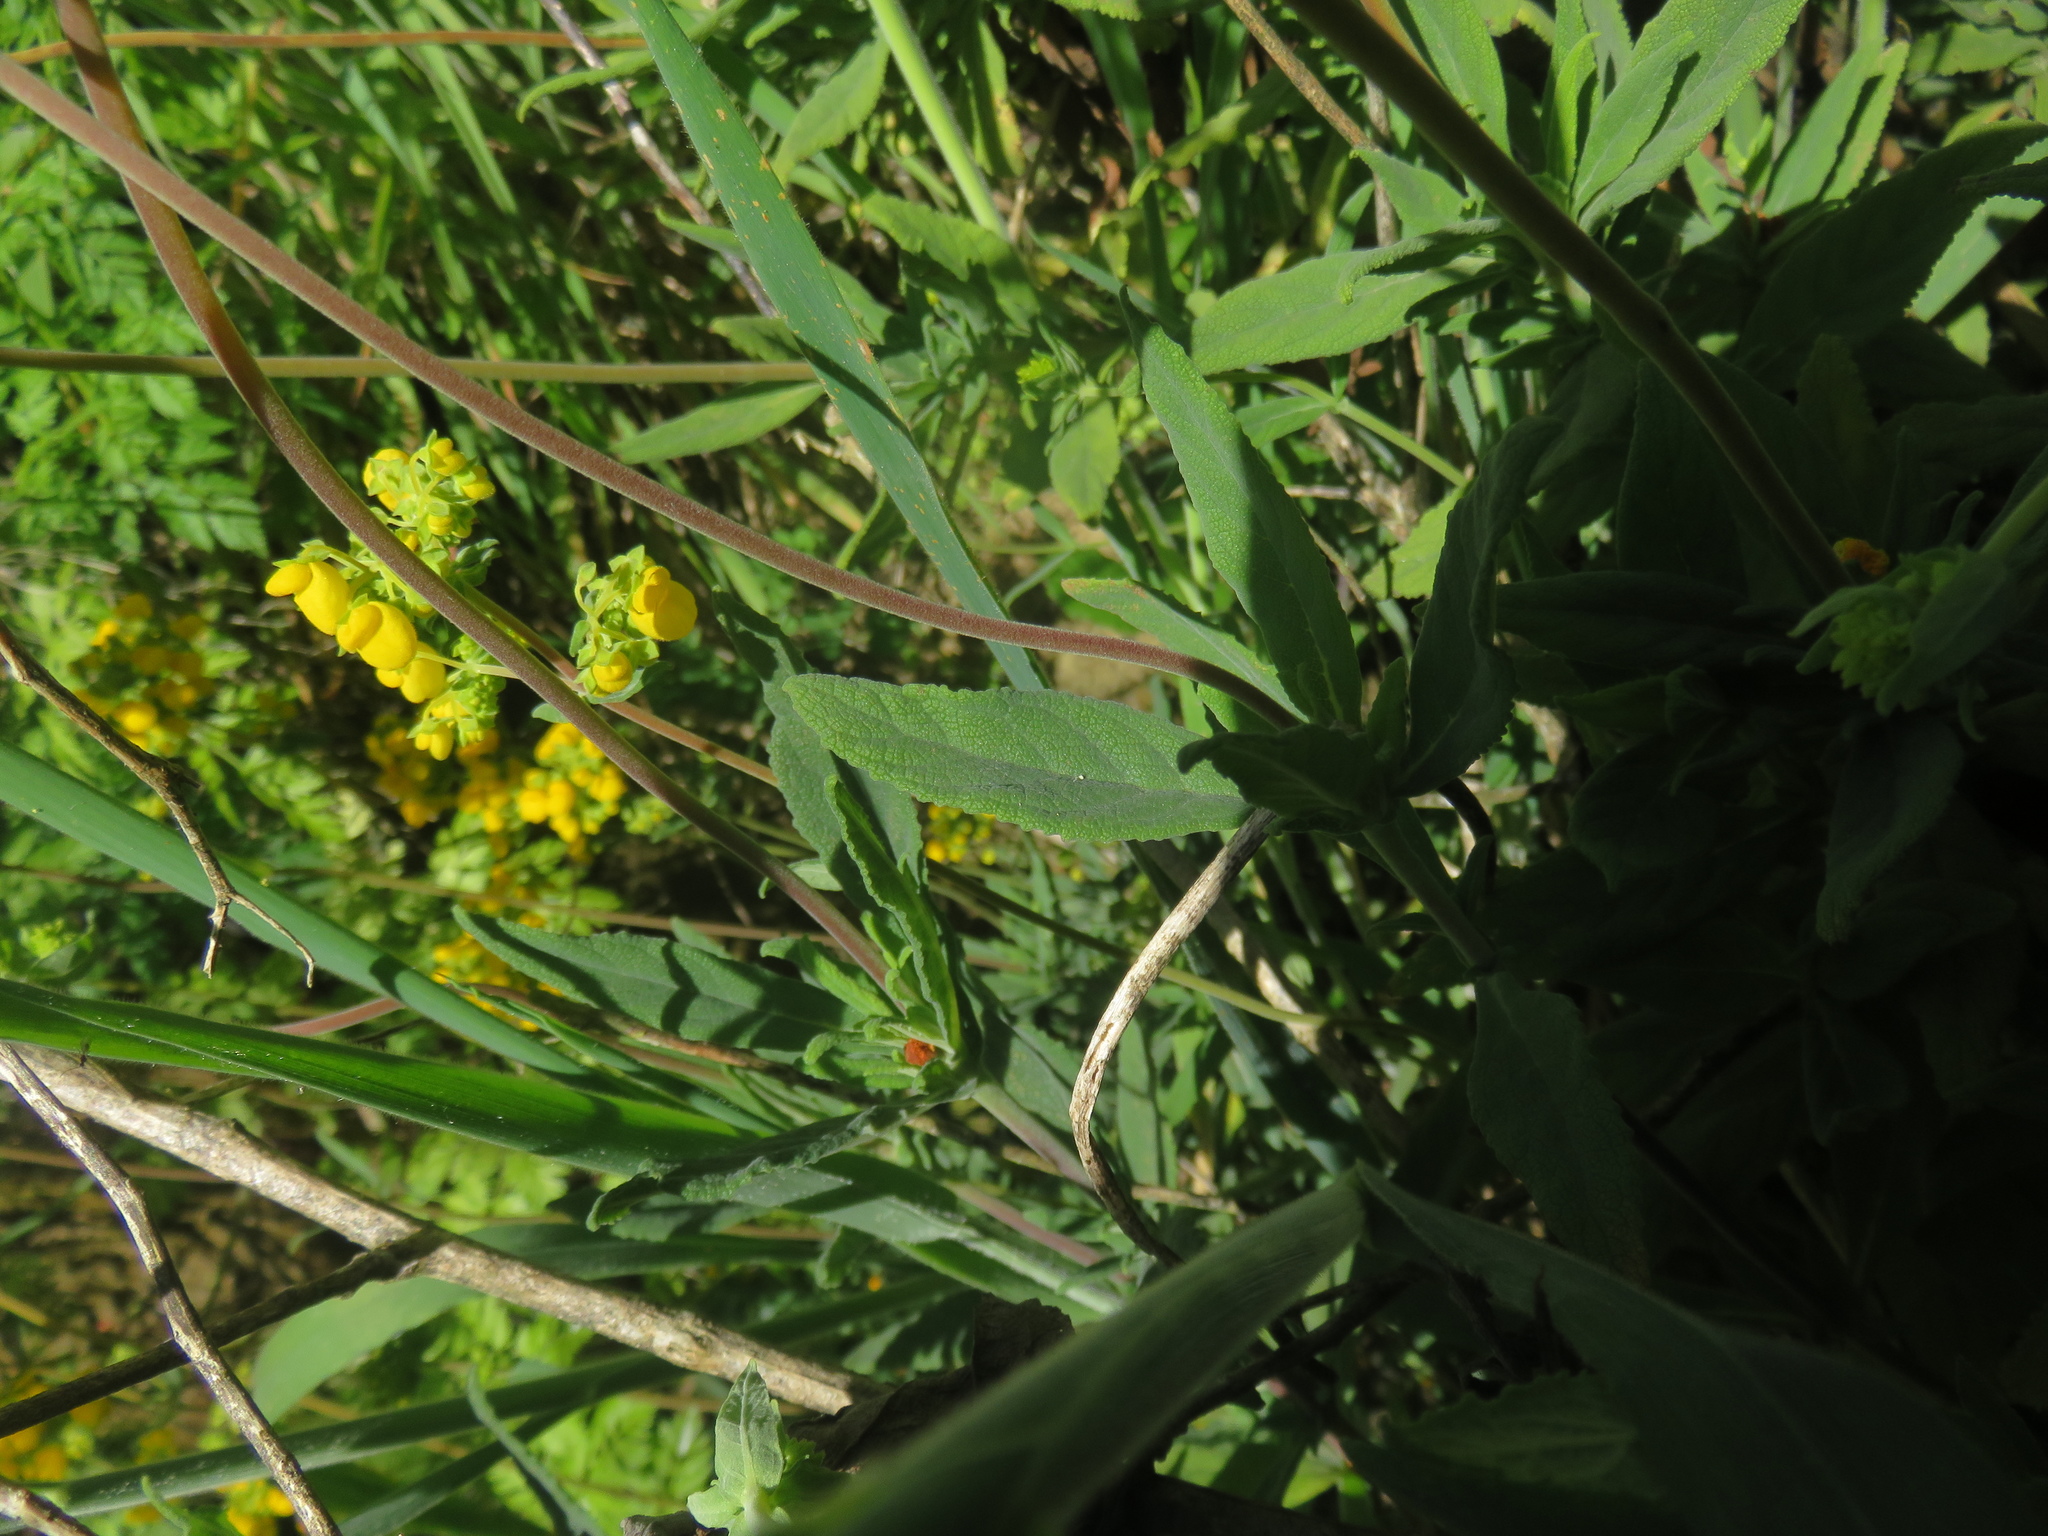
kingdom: Plantae
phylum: Tracheophyta
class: Magnoliopsida
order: Lamiales
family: Calceolariaceae
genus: Calceolaria
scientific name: Calceolaria integrifolia
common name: Bush slipperwort
